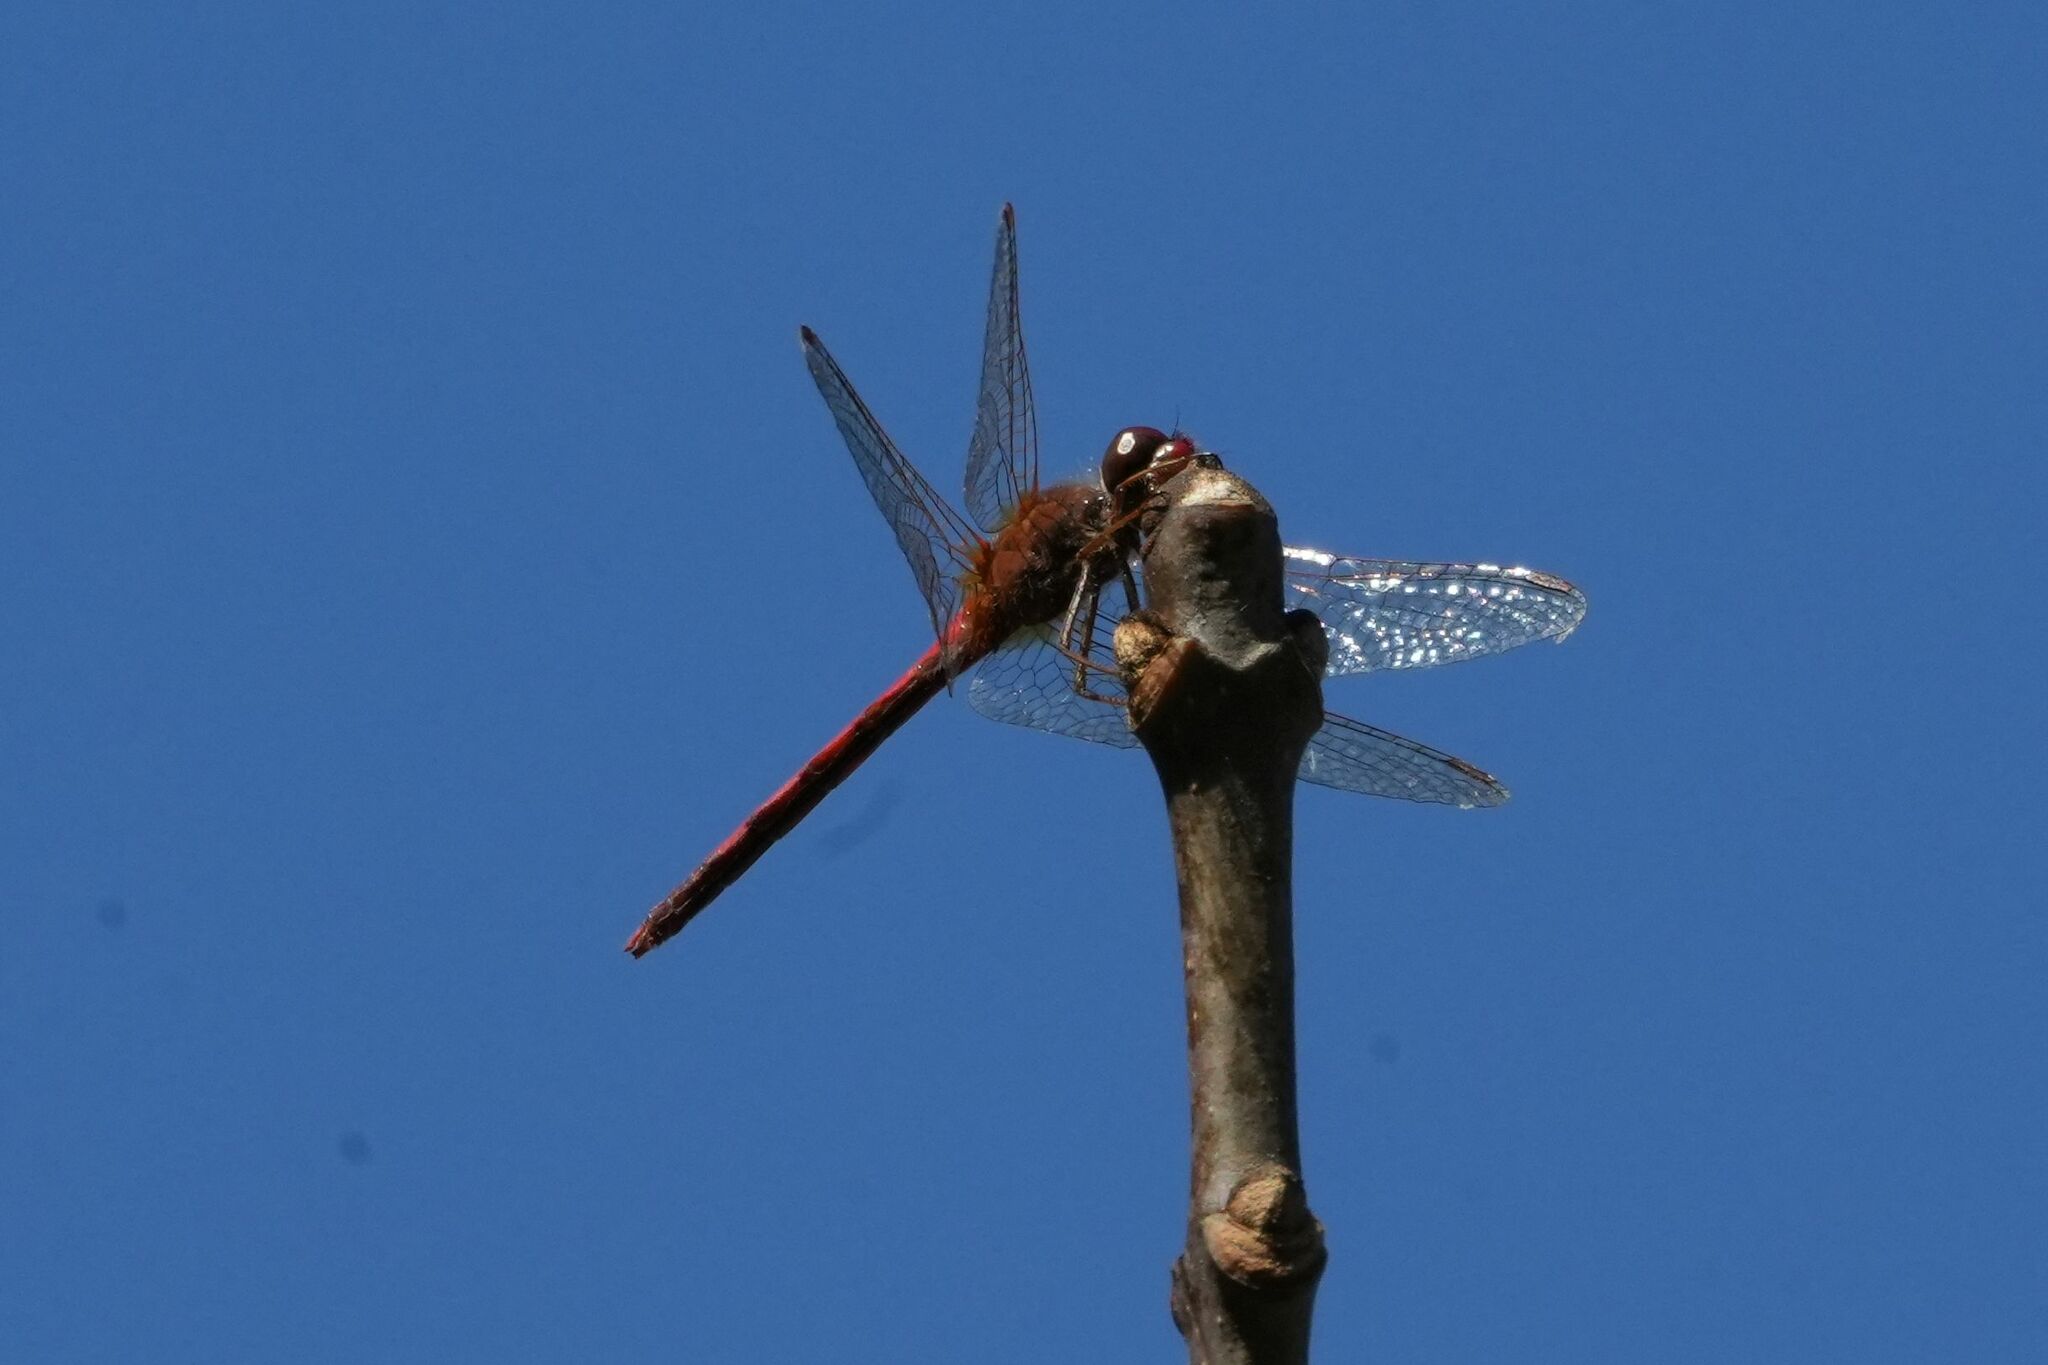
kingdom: Animalia
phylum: Arthropoda
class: Insecta
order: Odonata
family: Libellulidae
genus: Sympetrum
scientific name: Sympetrum vicinum
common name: Autumn meadowhawk
